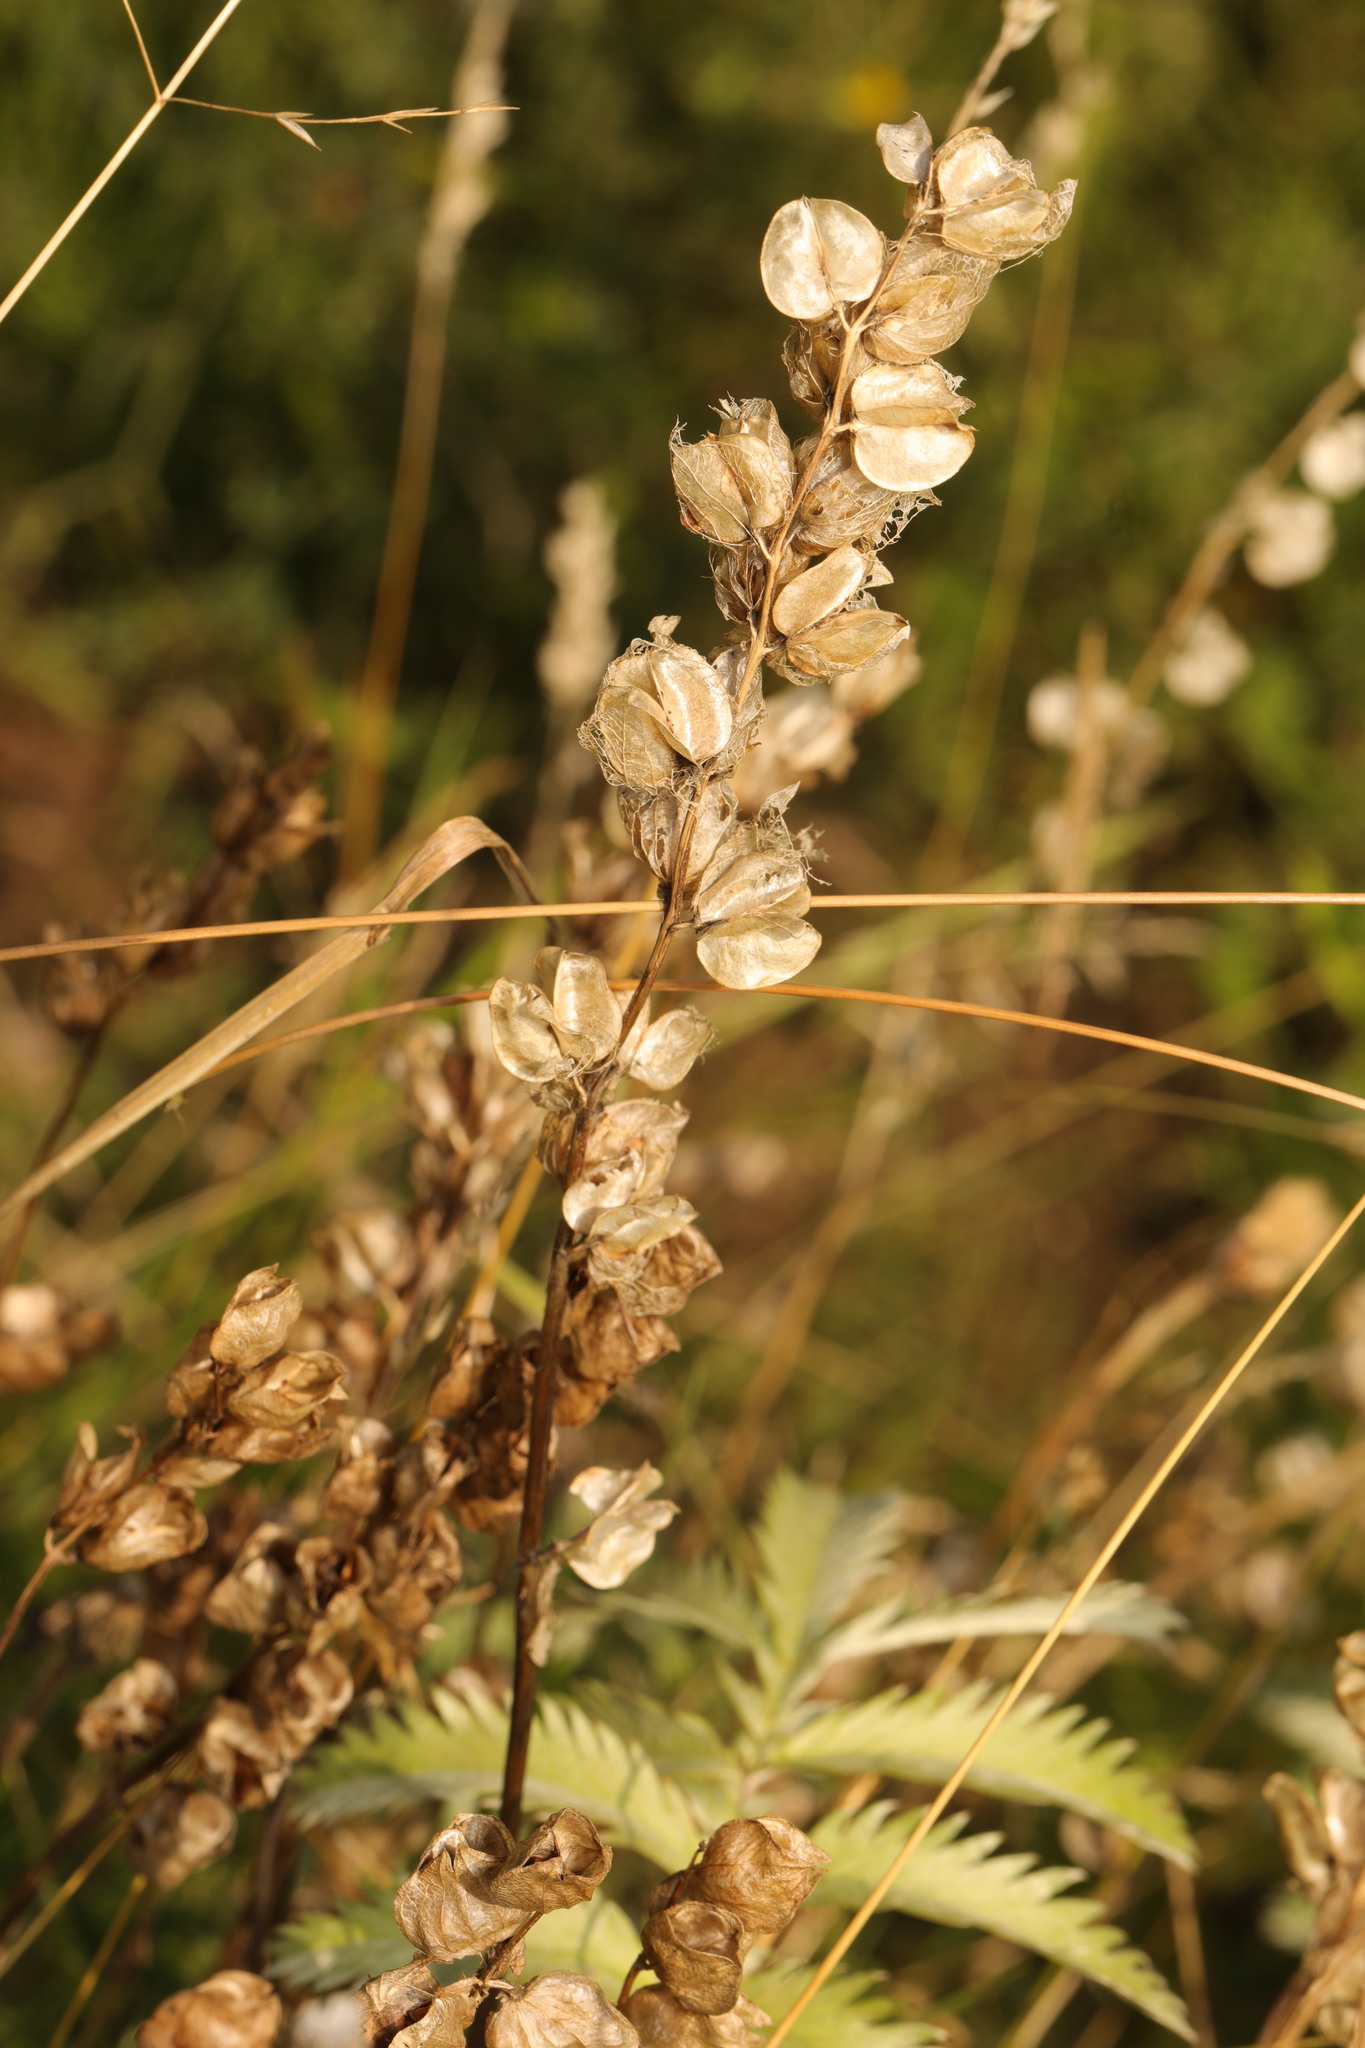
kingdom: Plantae
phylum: Tracheophyta
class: Magnoliopsida
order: Lamiales
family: Orobanchaceae
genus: Rhinanthus
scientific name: Rhinanthus minor
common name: Yellow-rattle
